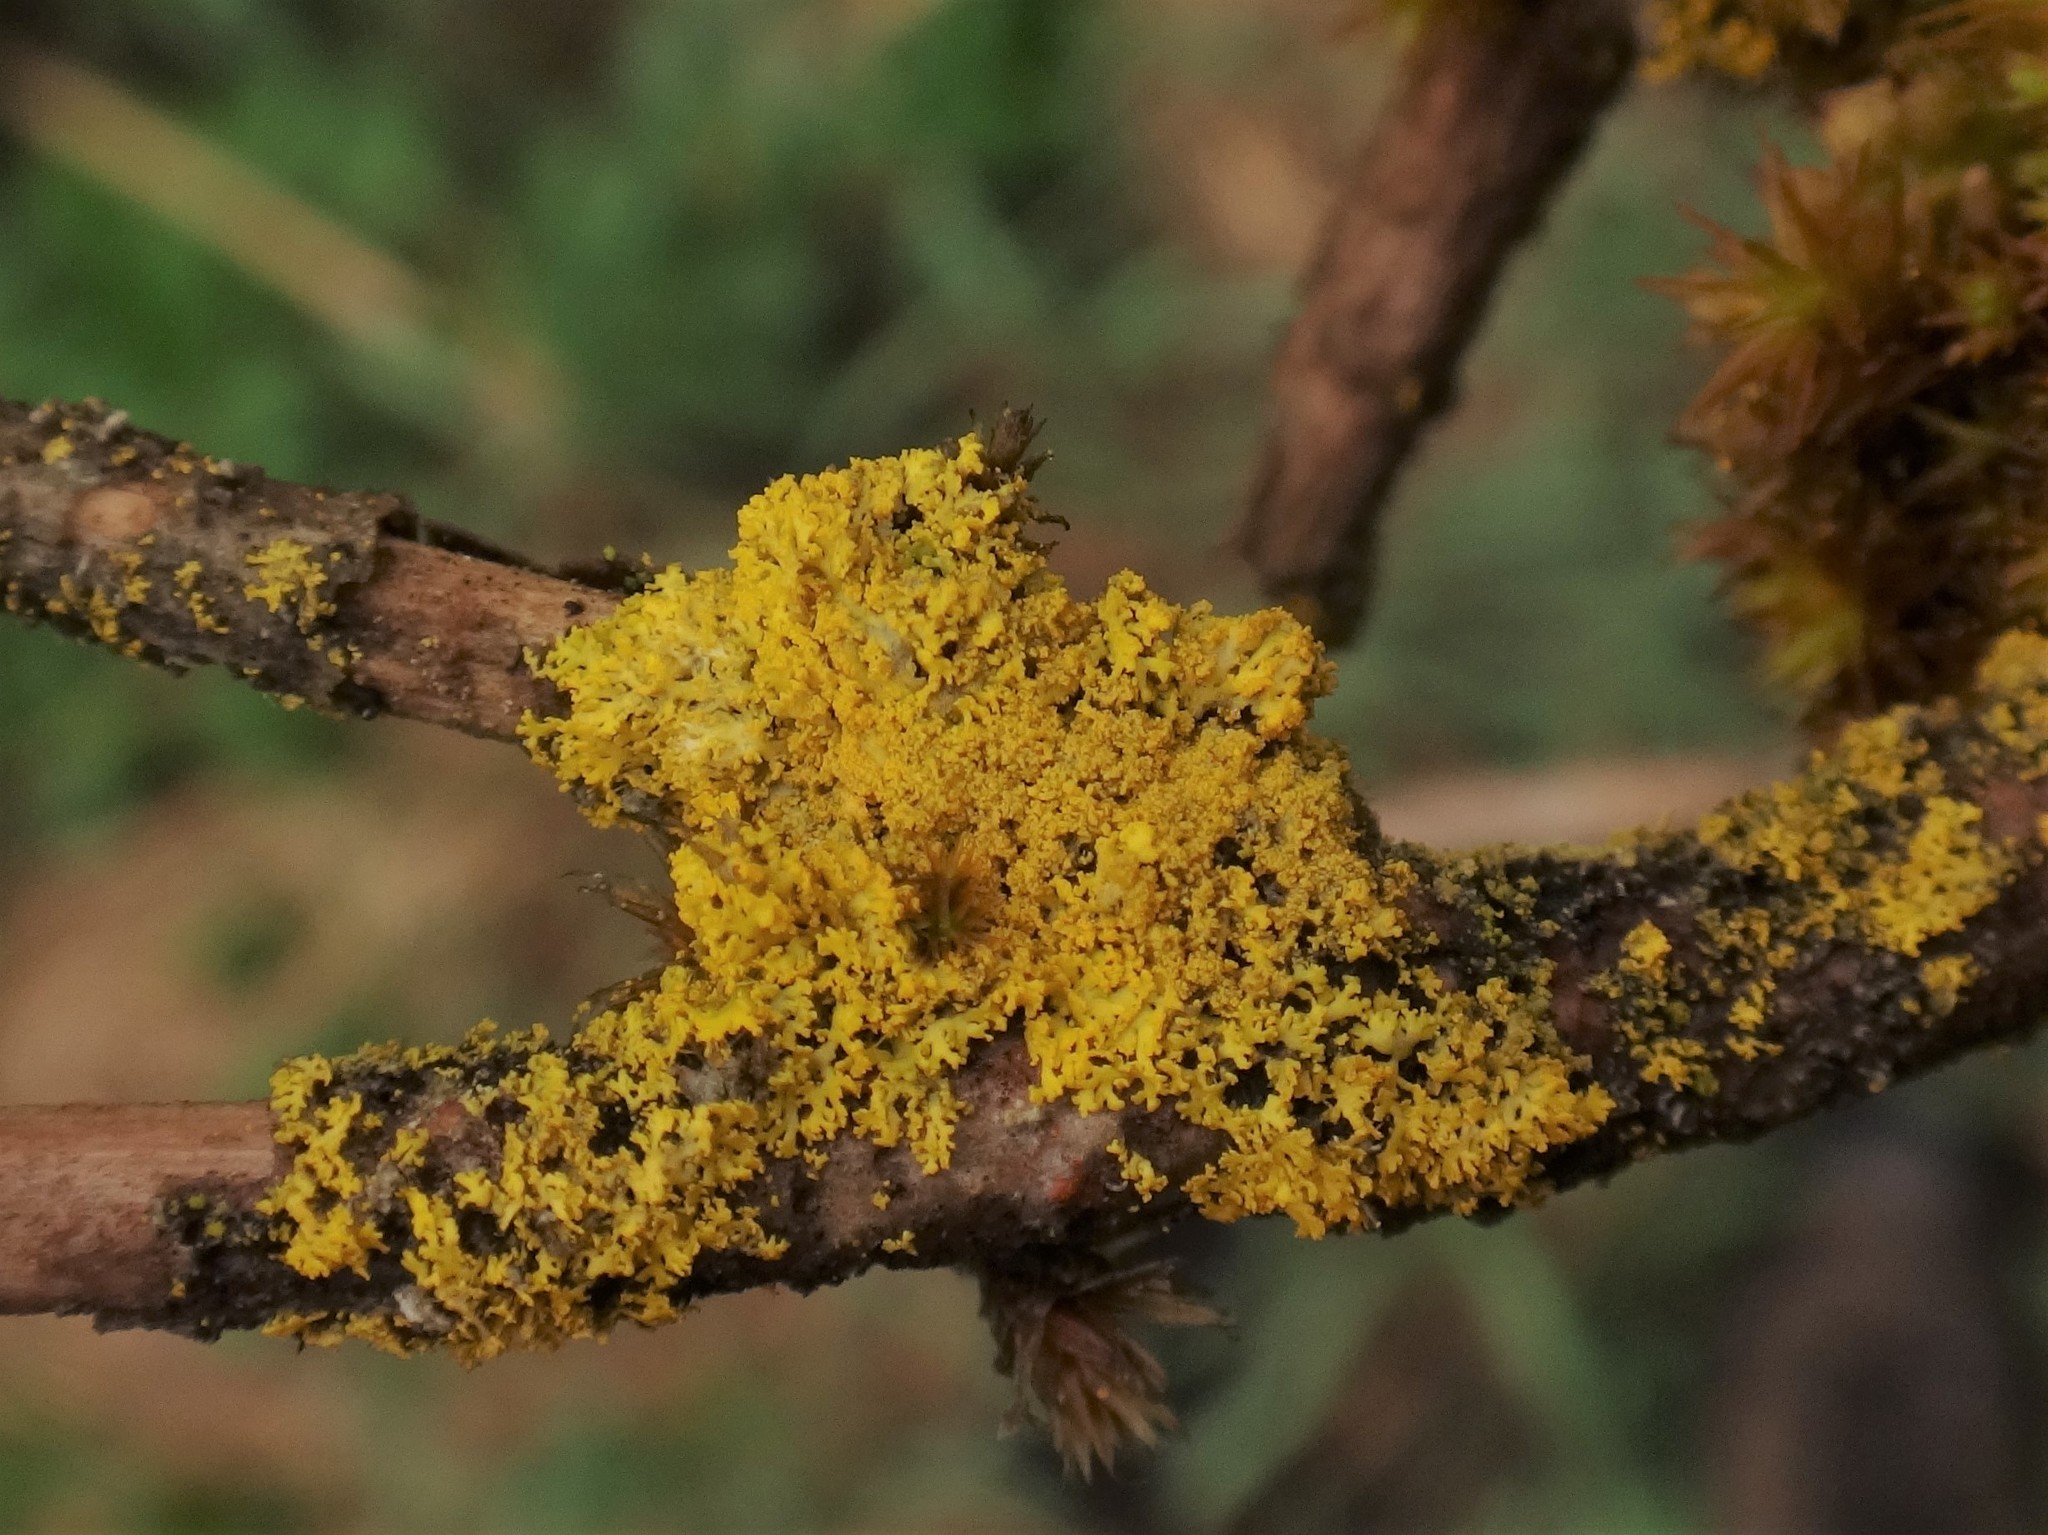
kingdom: Fungi
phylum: Ascomycota
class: Candelariomycetes
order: Candelariales
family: Candelariaceae
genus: Candelaria
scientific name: Candelaria concolor
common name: Candleflame lichen
